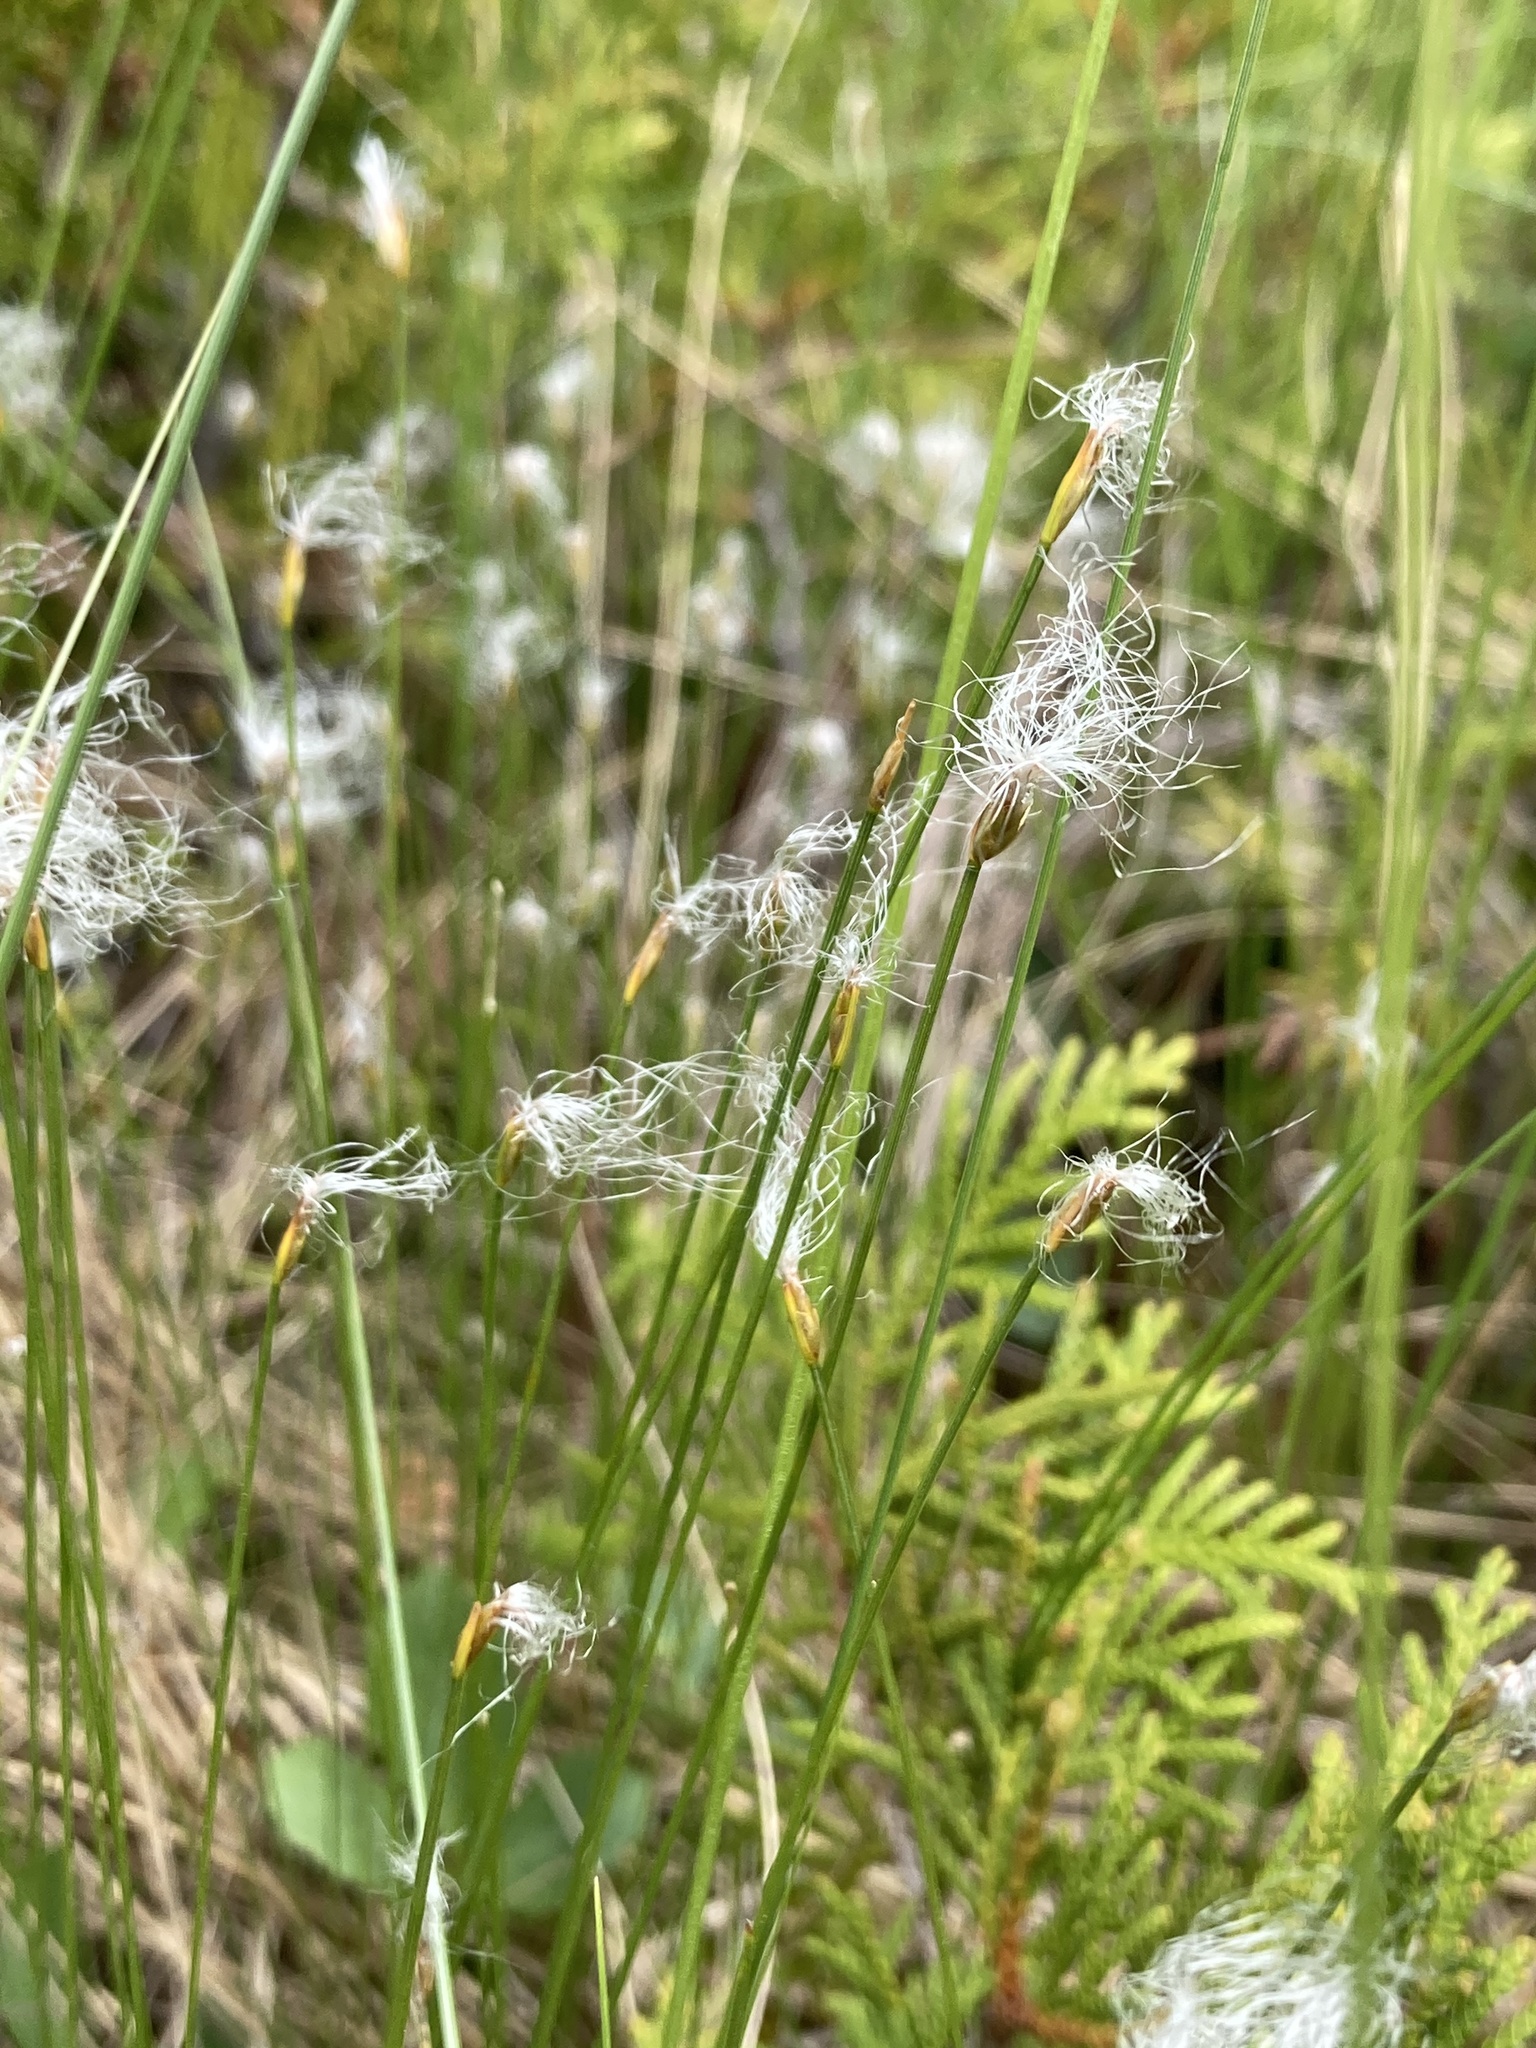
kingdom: Plantae
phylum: Tracheophyta
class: Liliopsida
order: Poales
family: Cyperaceae
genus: Trichophorum
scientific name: Trichophorum alpinum
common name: Alpine bulrush
